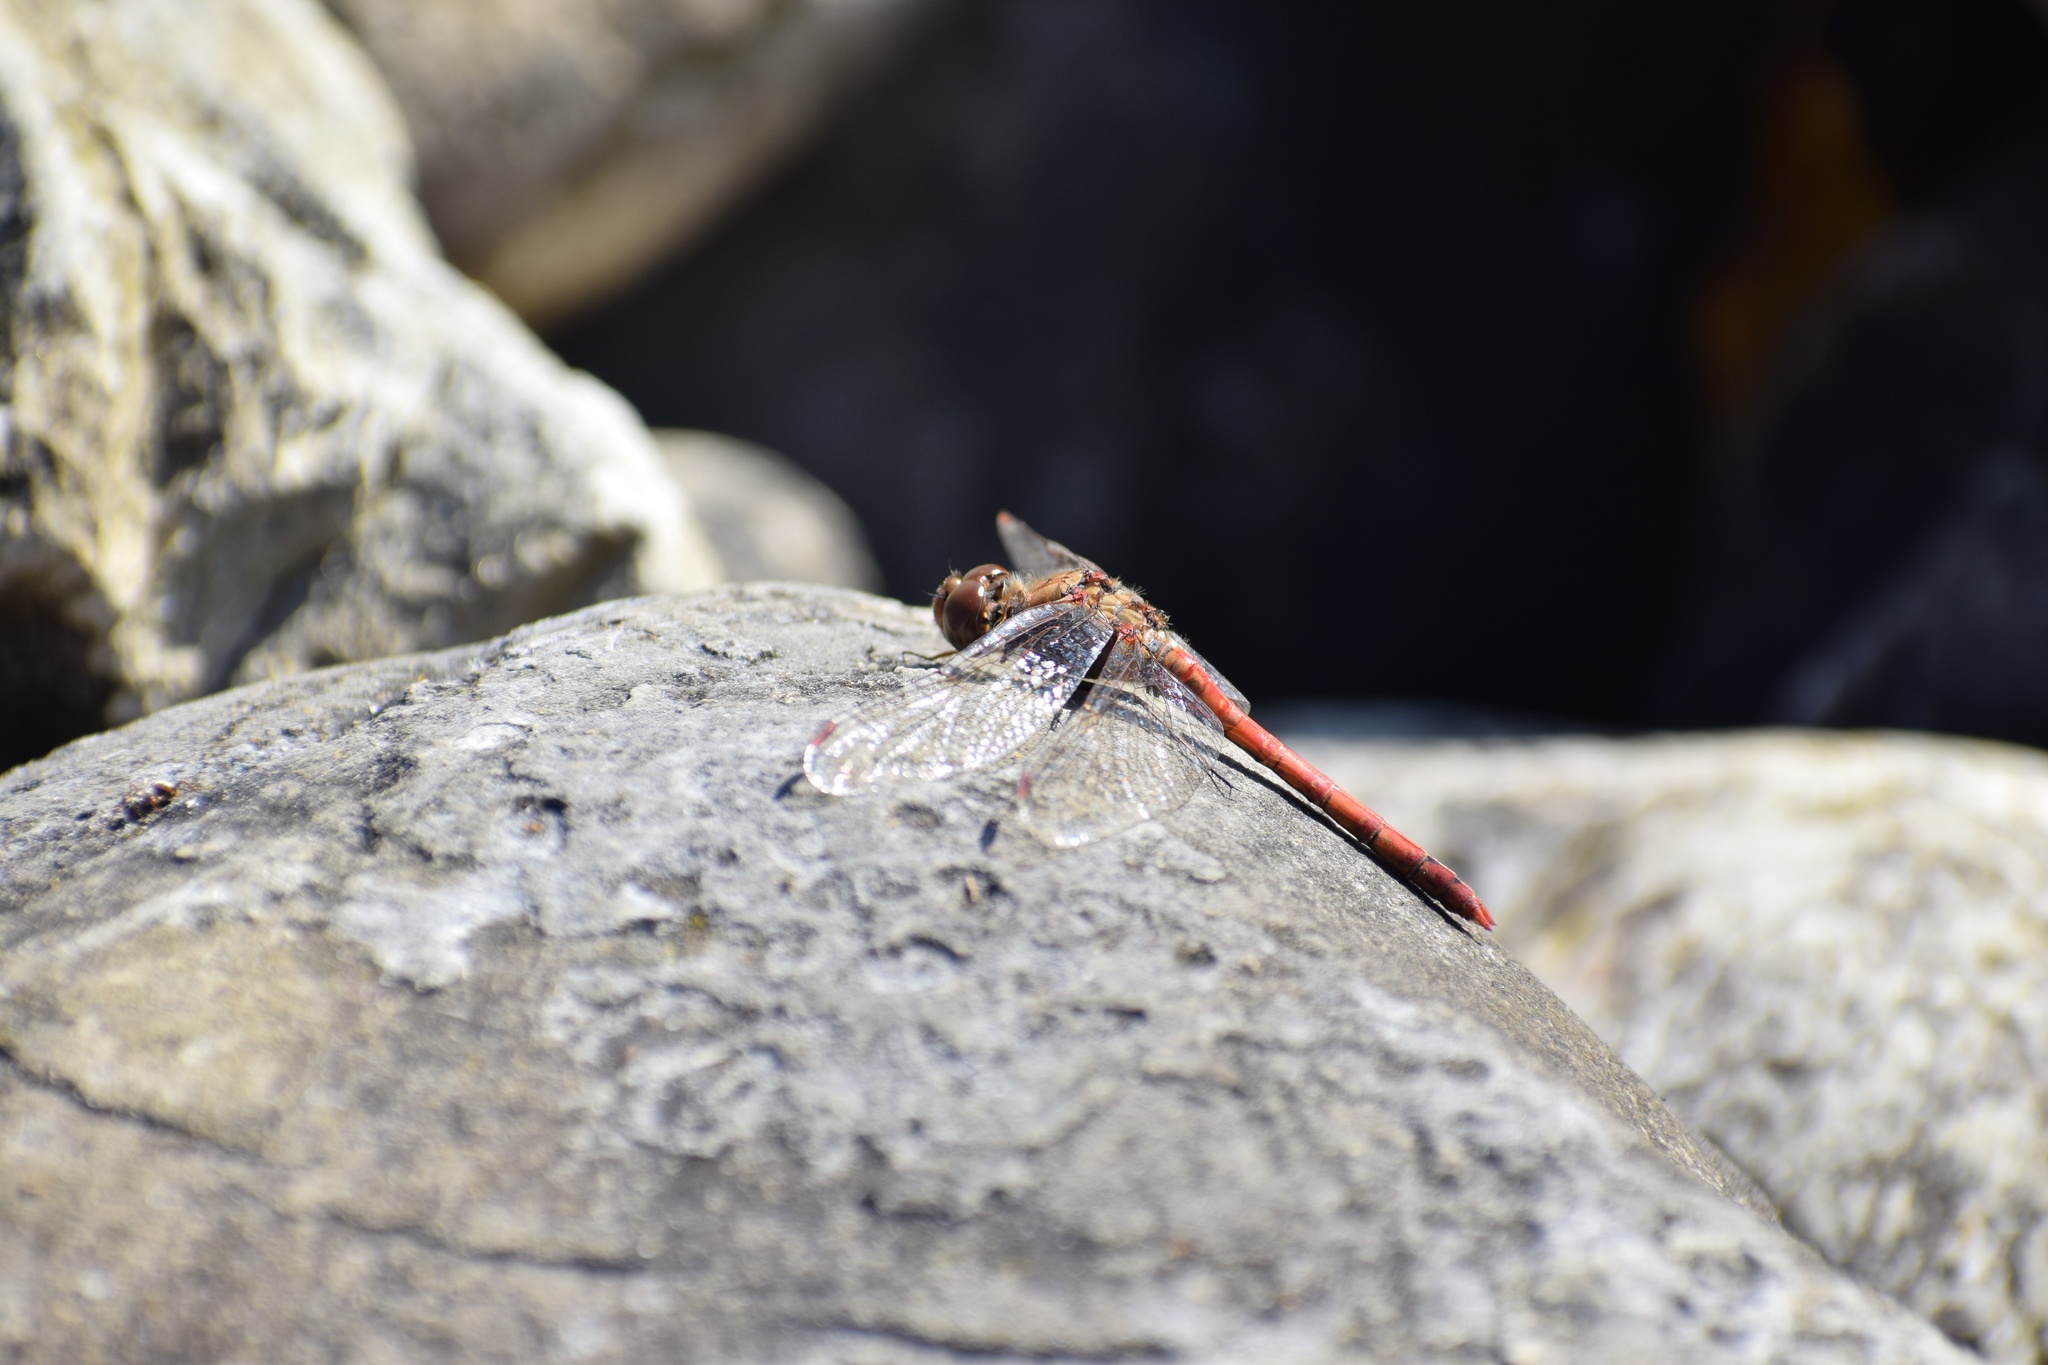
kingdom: Animalia
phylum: Arthropoda
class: Insecta
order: Odonata
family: Libellulidae
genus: Sympetrum
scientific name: Sympetrum striolatum
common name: Common darter
